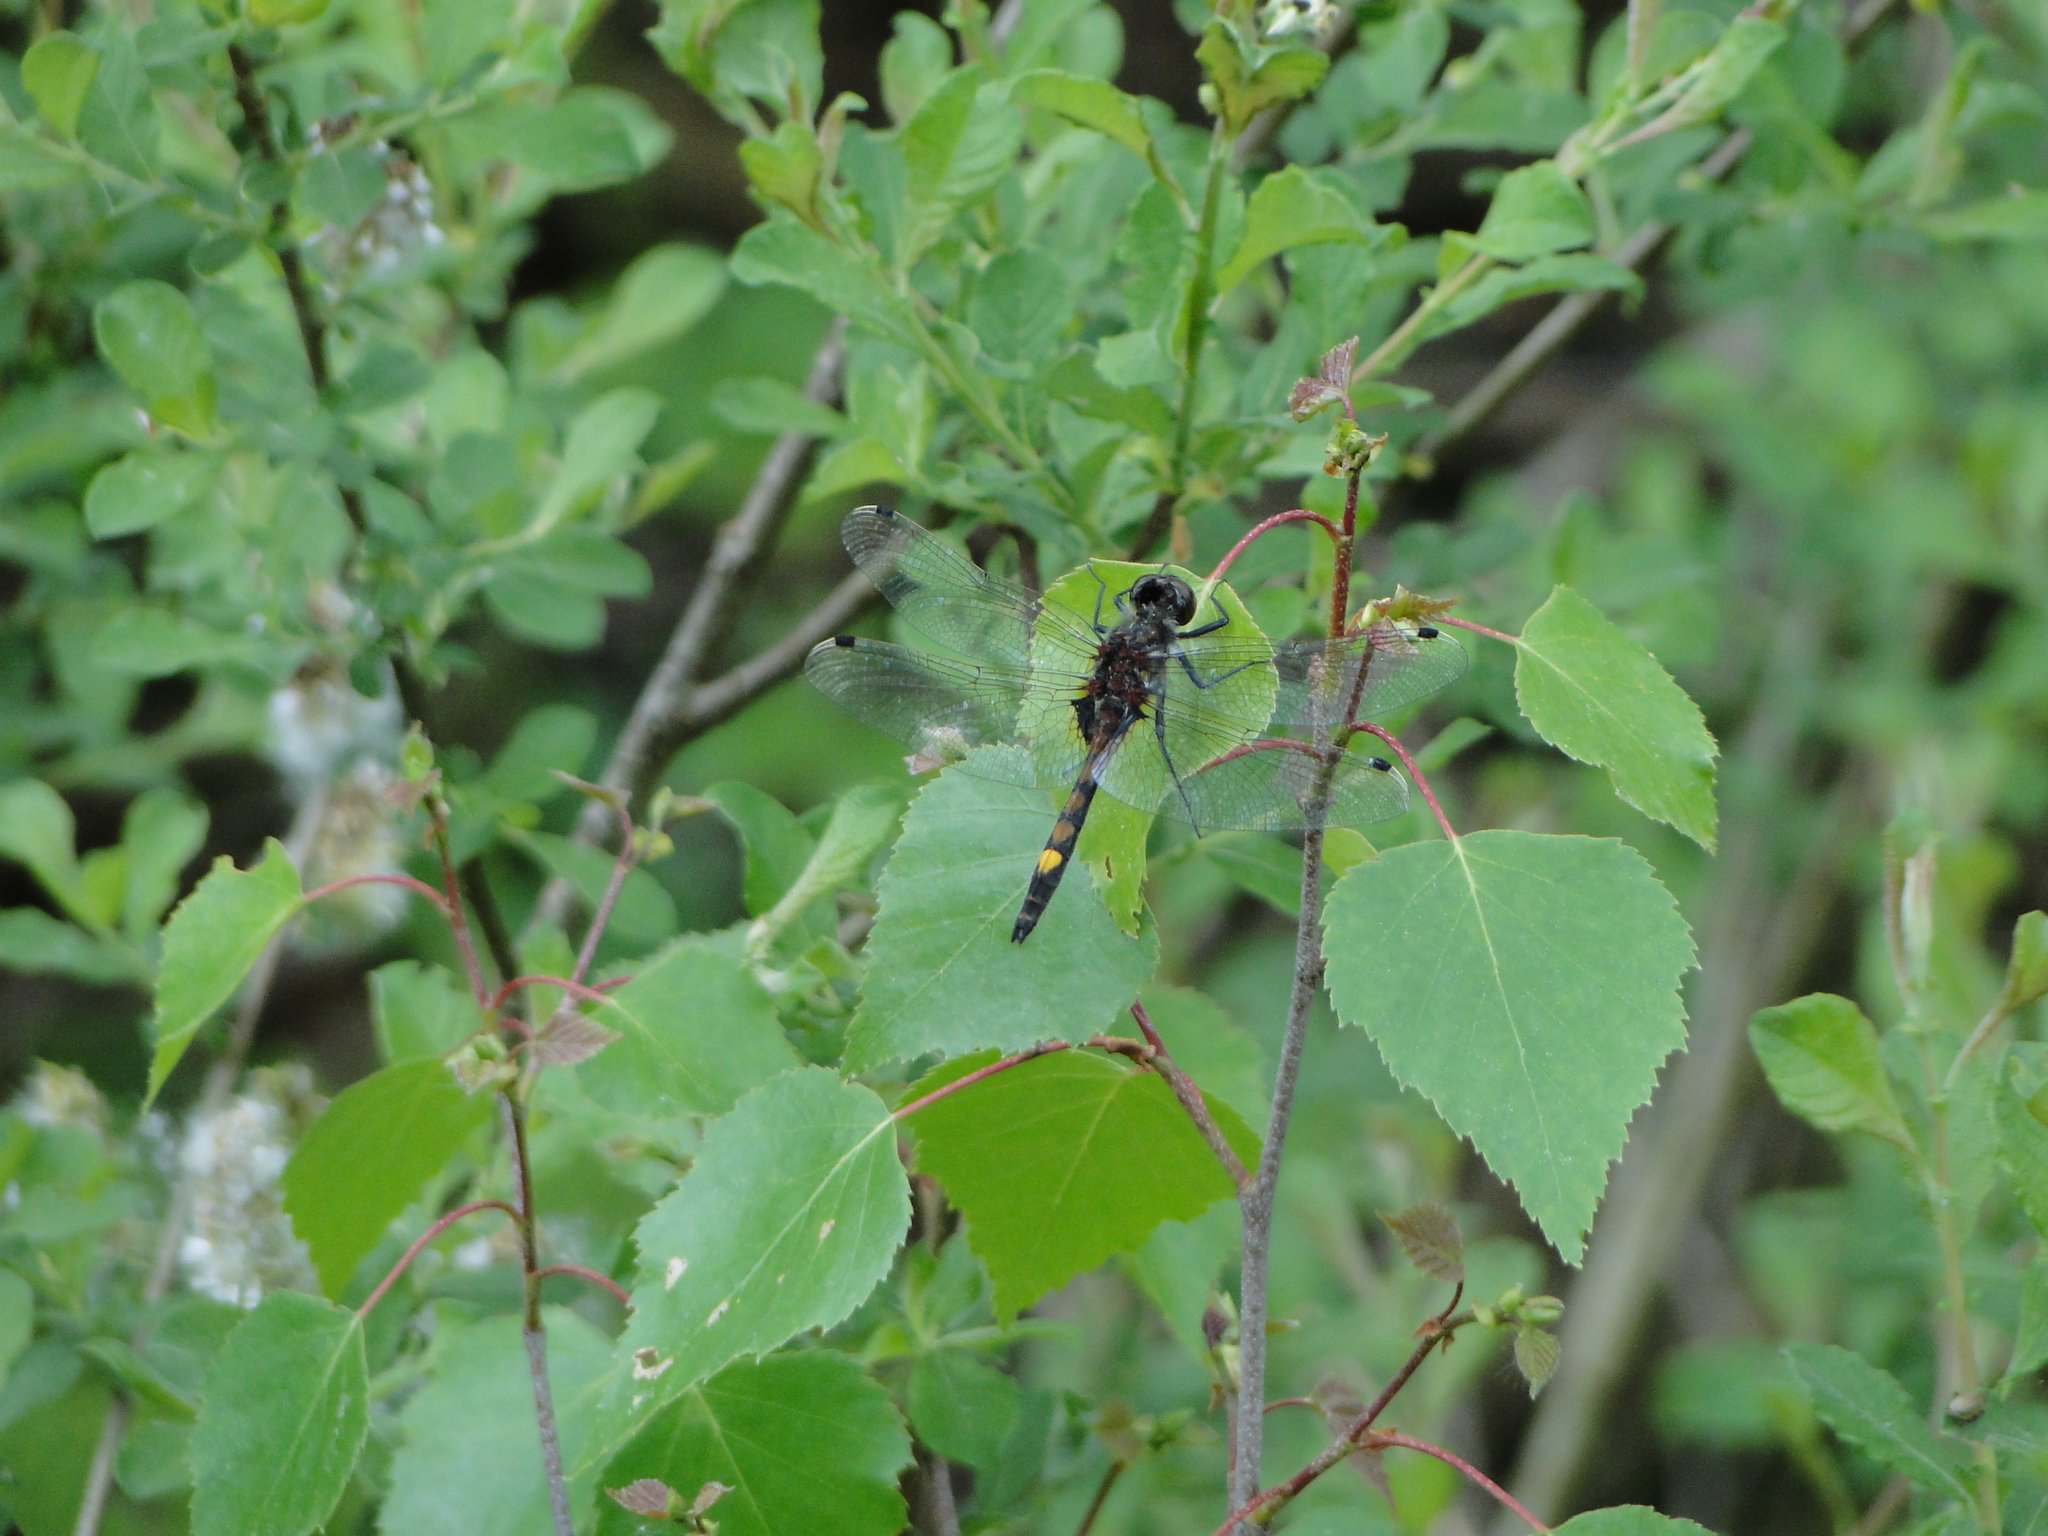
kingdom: Animalia
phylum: Arthropoda
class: Insecta
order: Odonata
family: Libellulidae
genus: Leucorrhinia
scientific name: Leucorrhinia pectoralis
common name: Yellow-spotted whiteface
